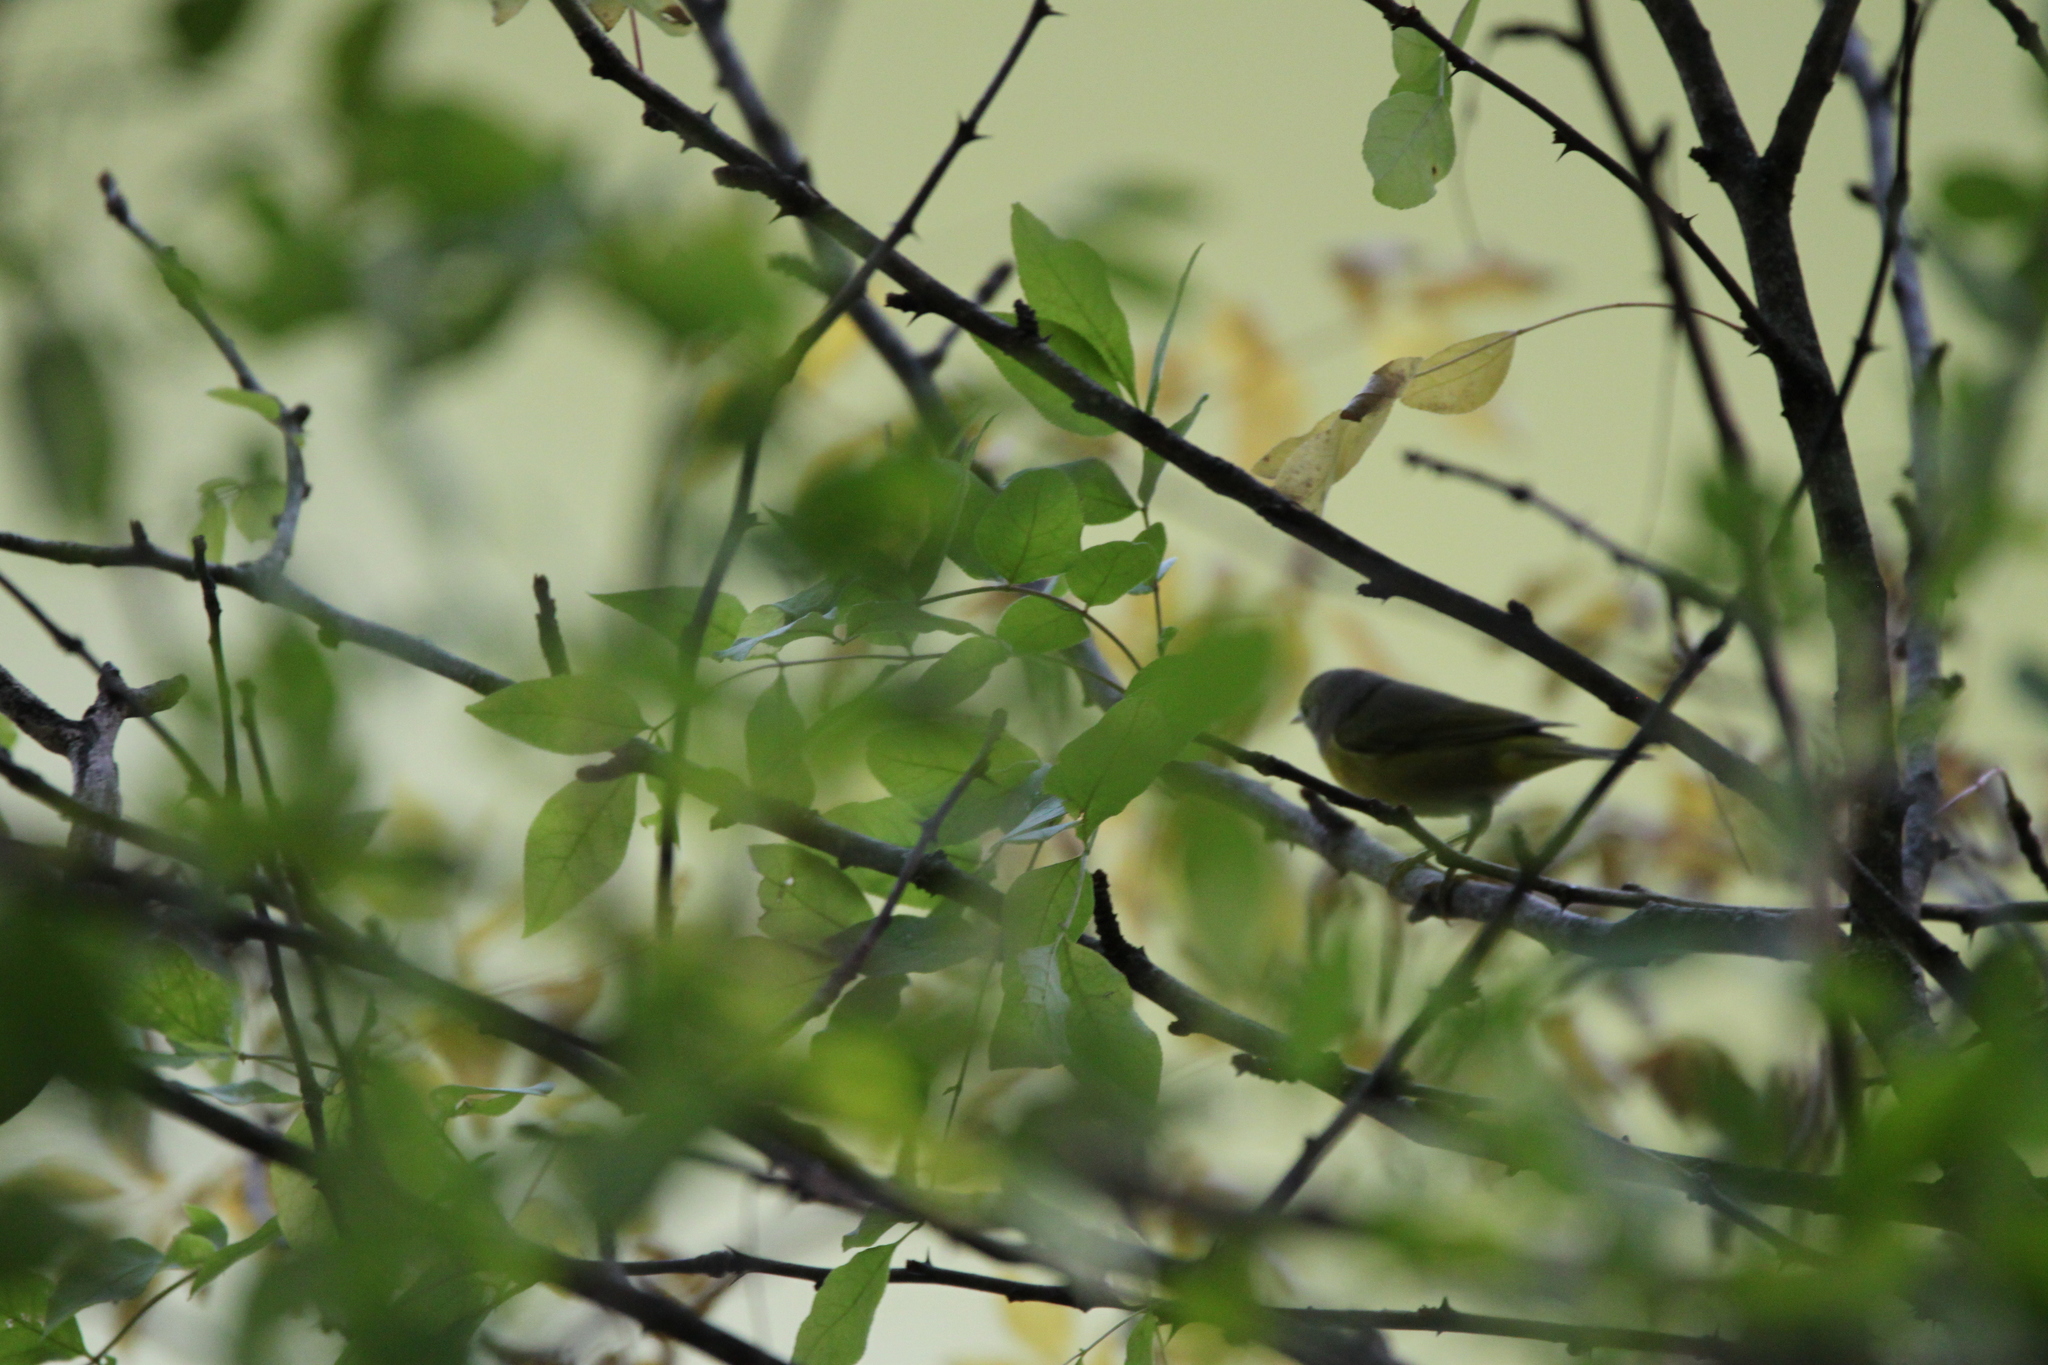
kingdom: Animalia
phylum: Chordata
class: Aves
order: Passeriformes
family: Parulidae
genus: Leiothlypis
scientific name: Leiothlypis ruficapilla
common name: Nashville warbler
